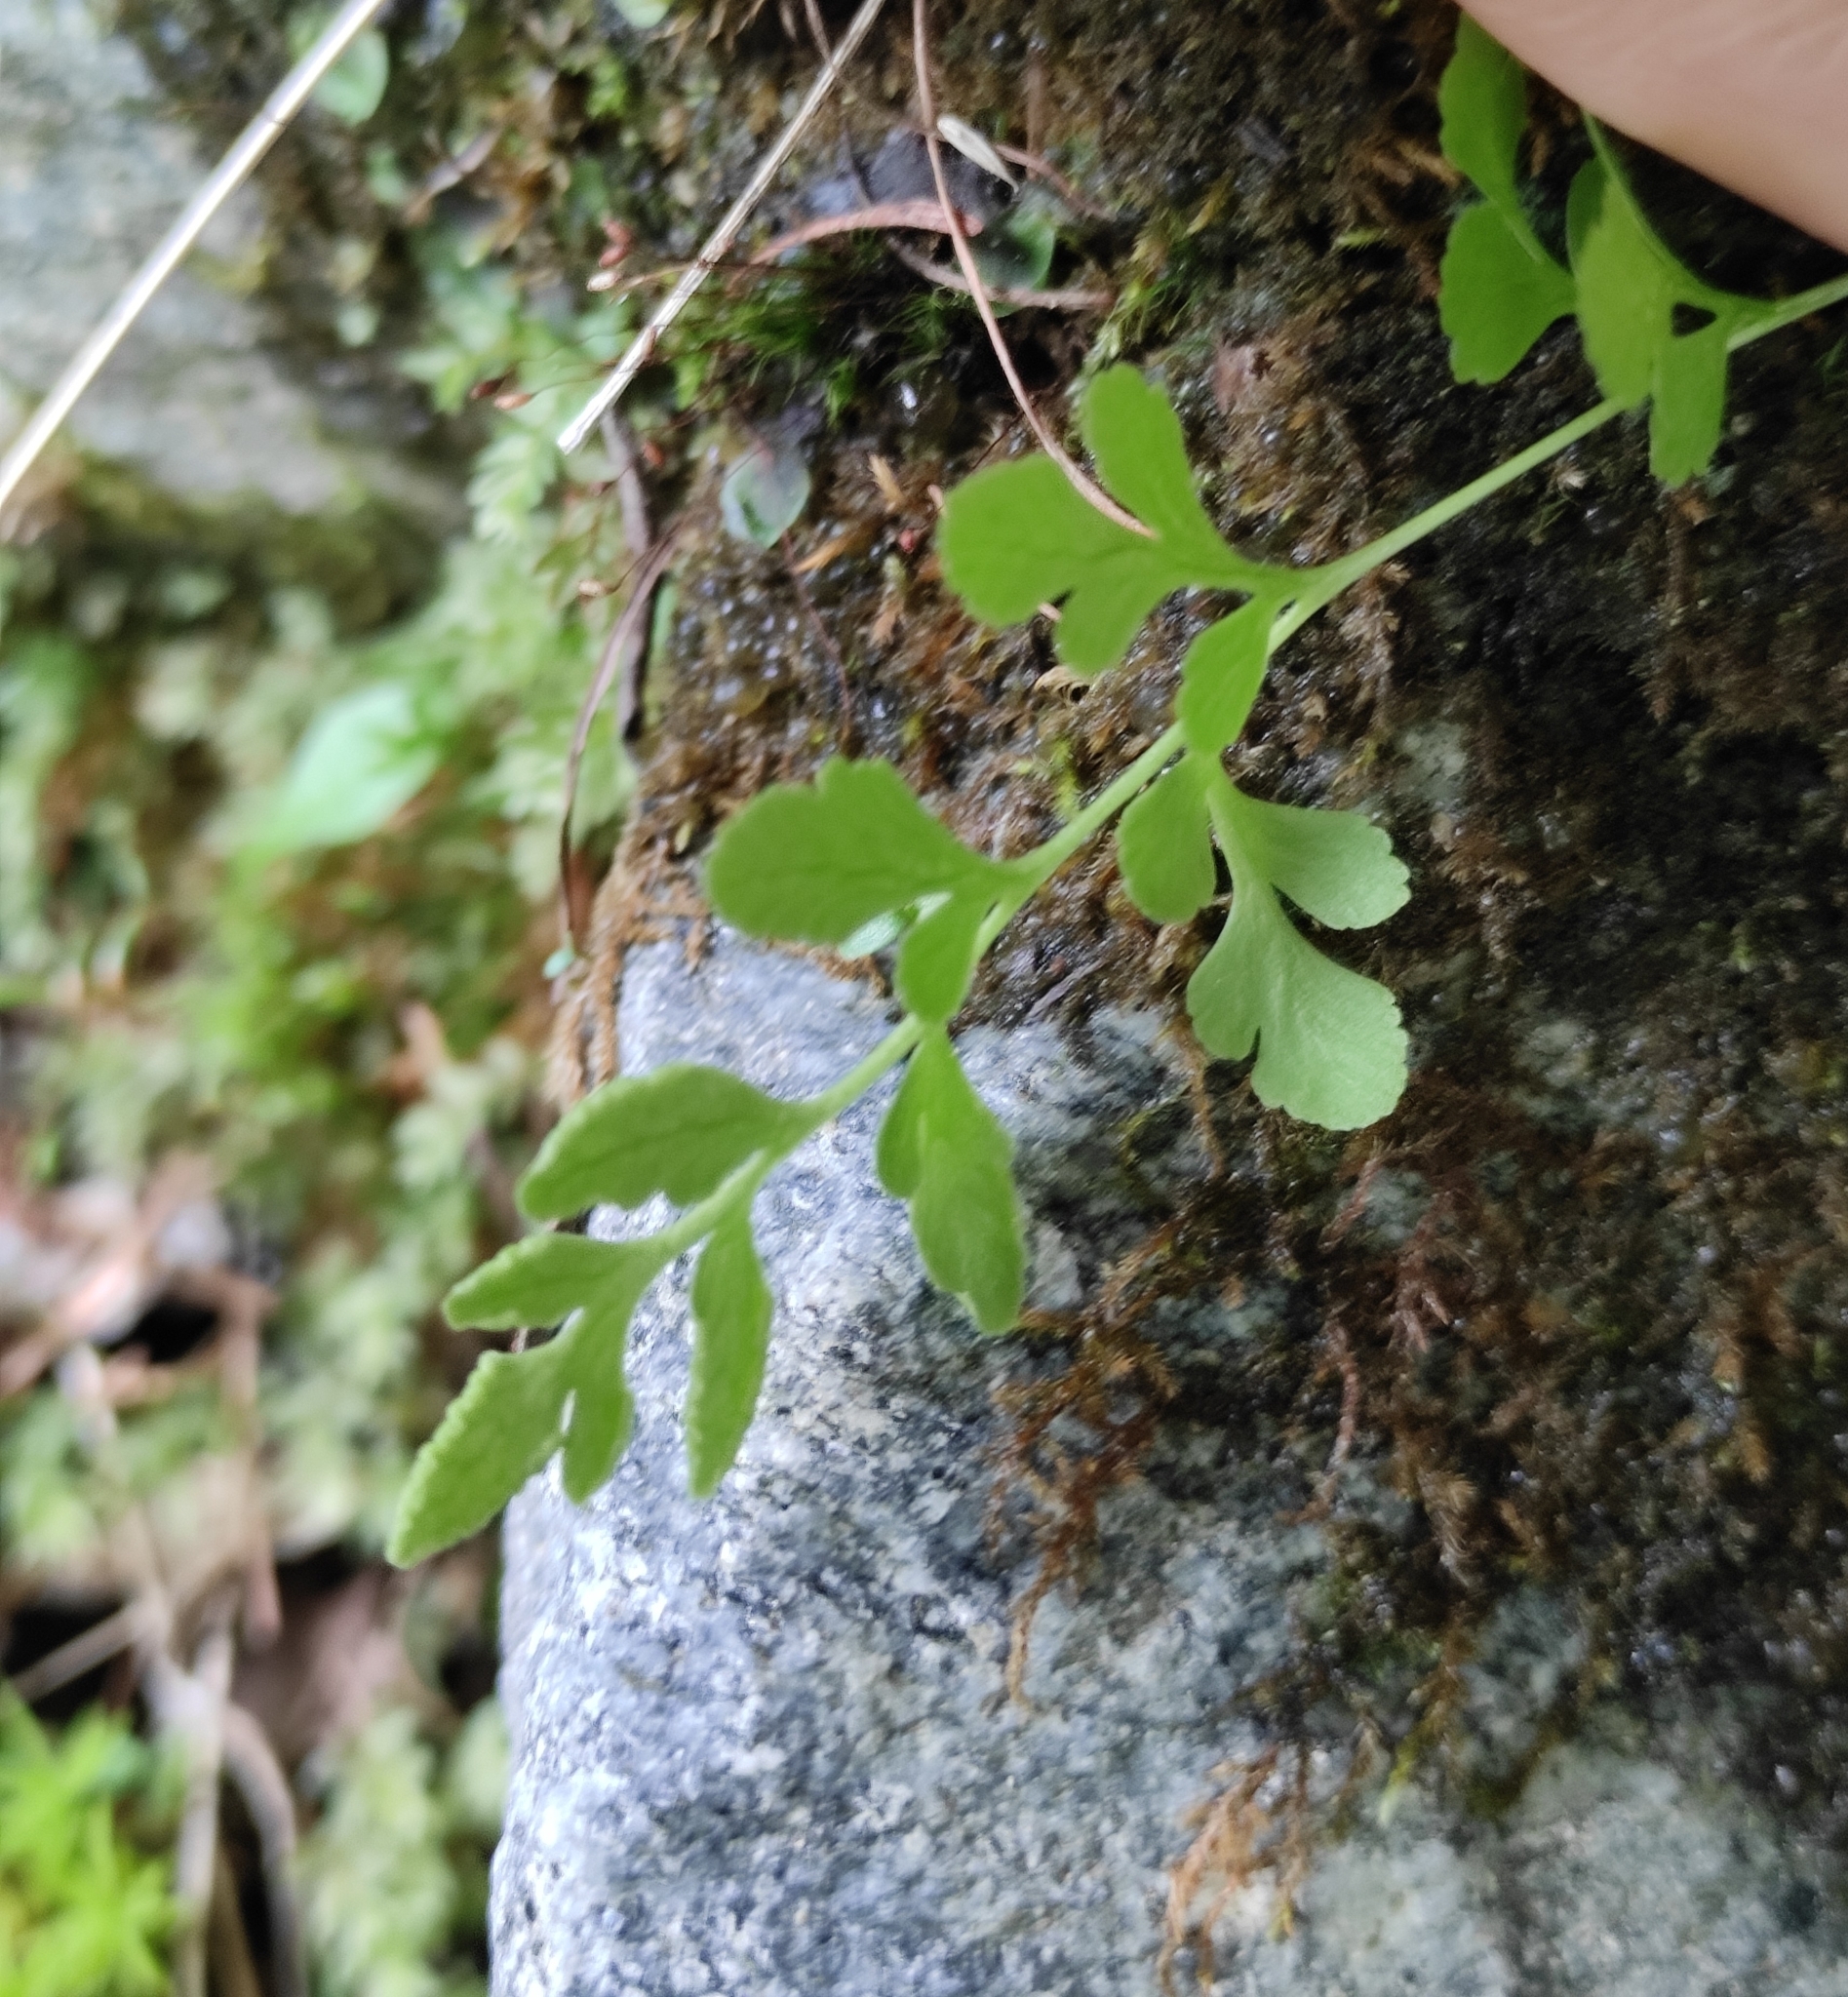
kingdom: Plantae
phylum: Tracheophyta
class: Polypodiopsida
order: Polypodiales
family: Pteridaceae
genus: Cryptogramma
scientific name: Cryptogramma stelleri
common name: Cliff-brake
